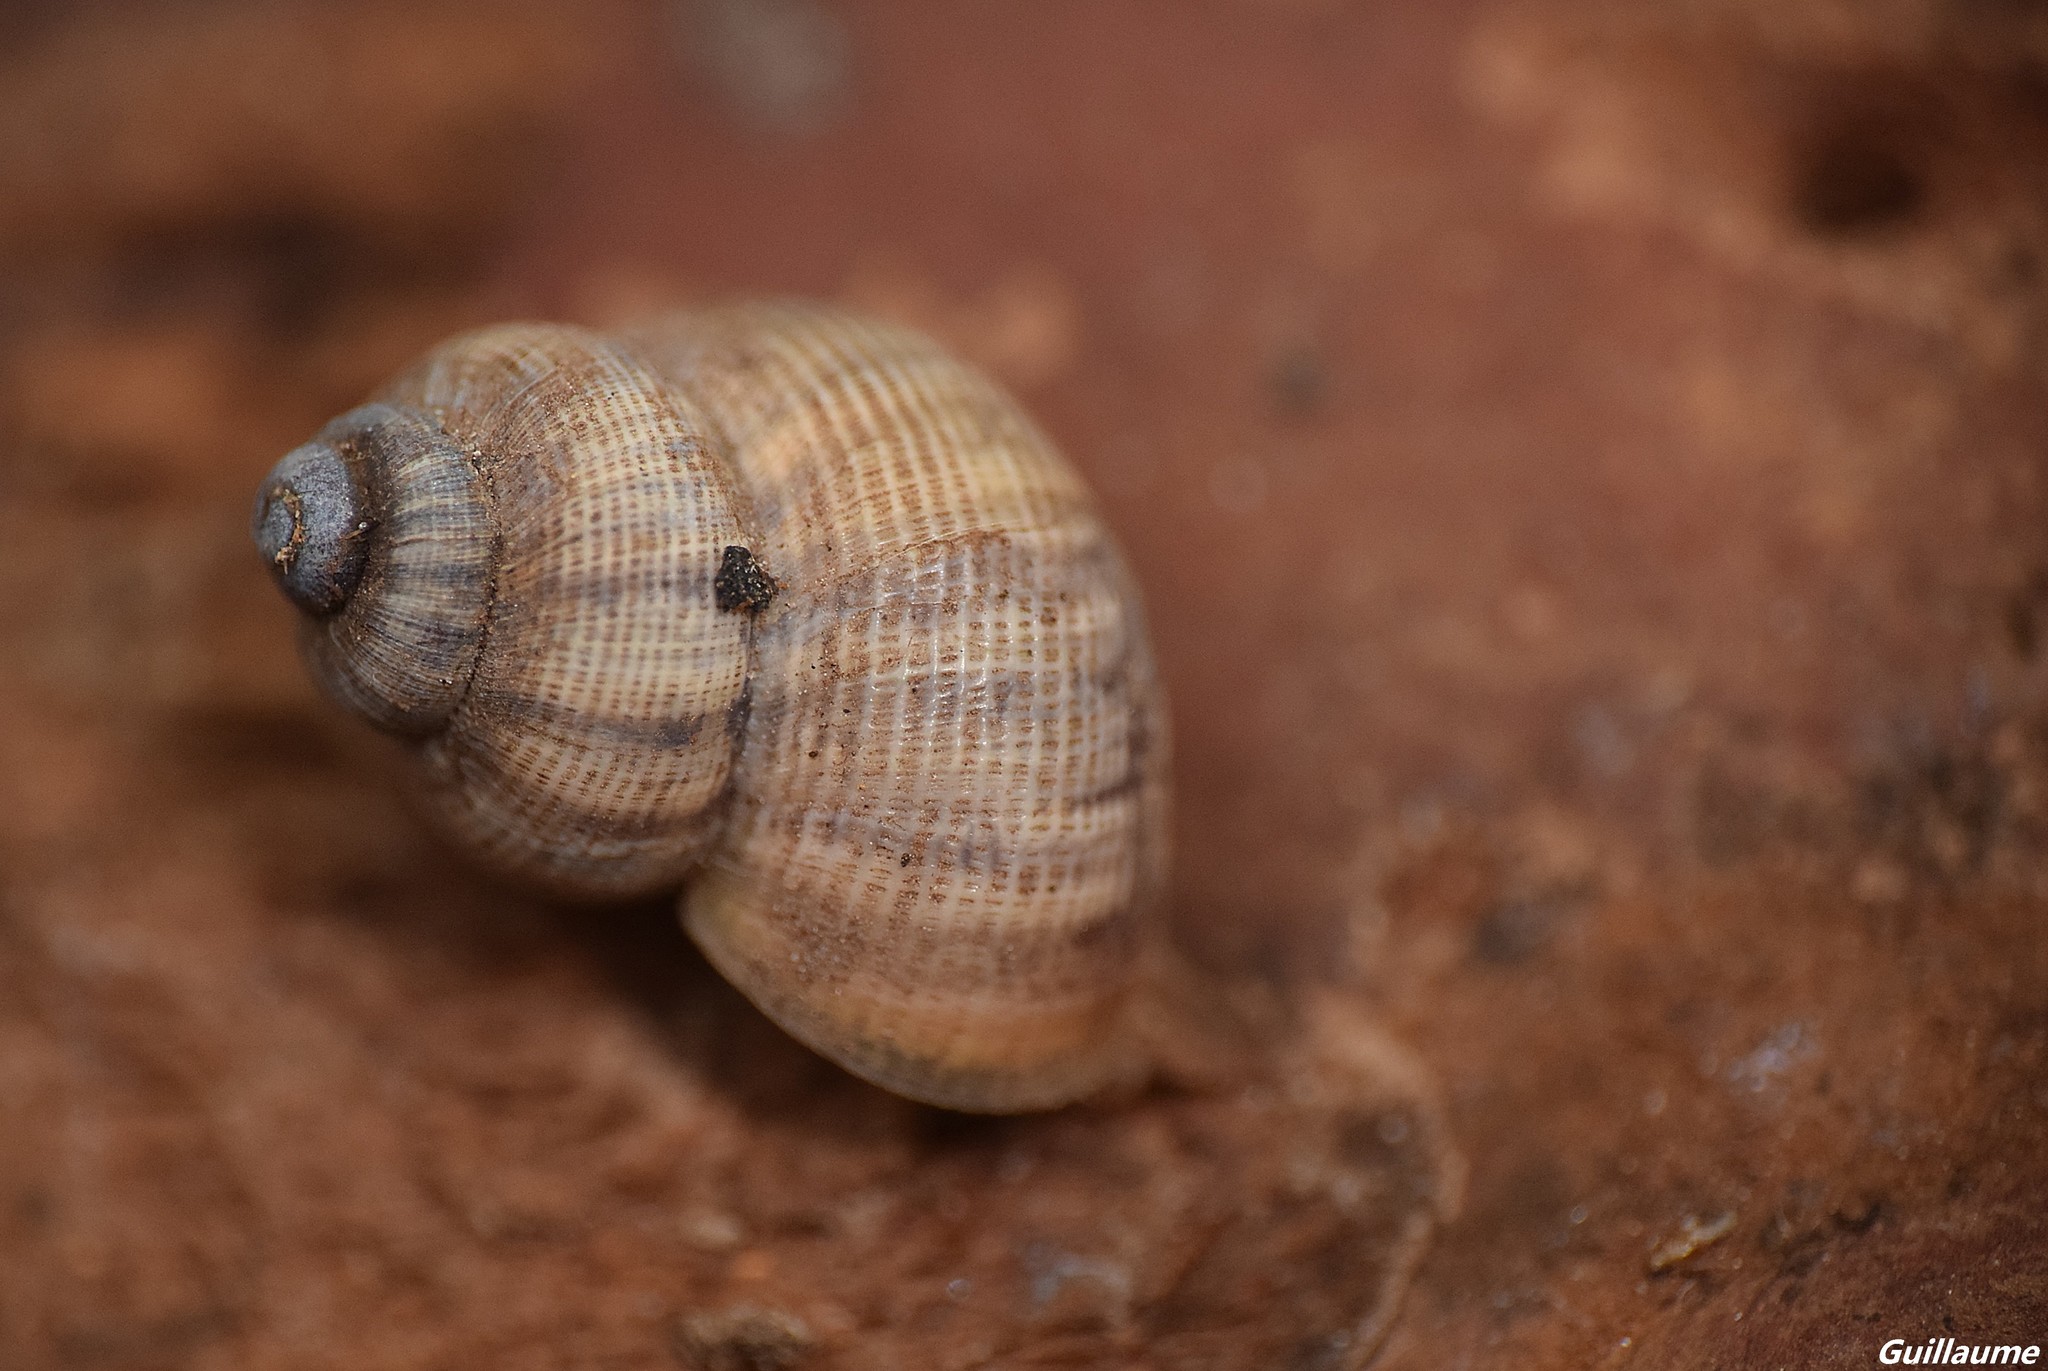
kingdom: Animalia
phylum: Mollusca
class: Gastropoda
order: Littorinimorpha
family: Pomatiidae
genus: Pomatias
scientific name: Pomatias elegans
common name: Red-mouthed snail
